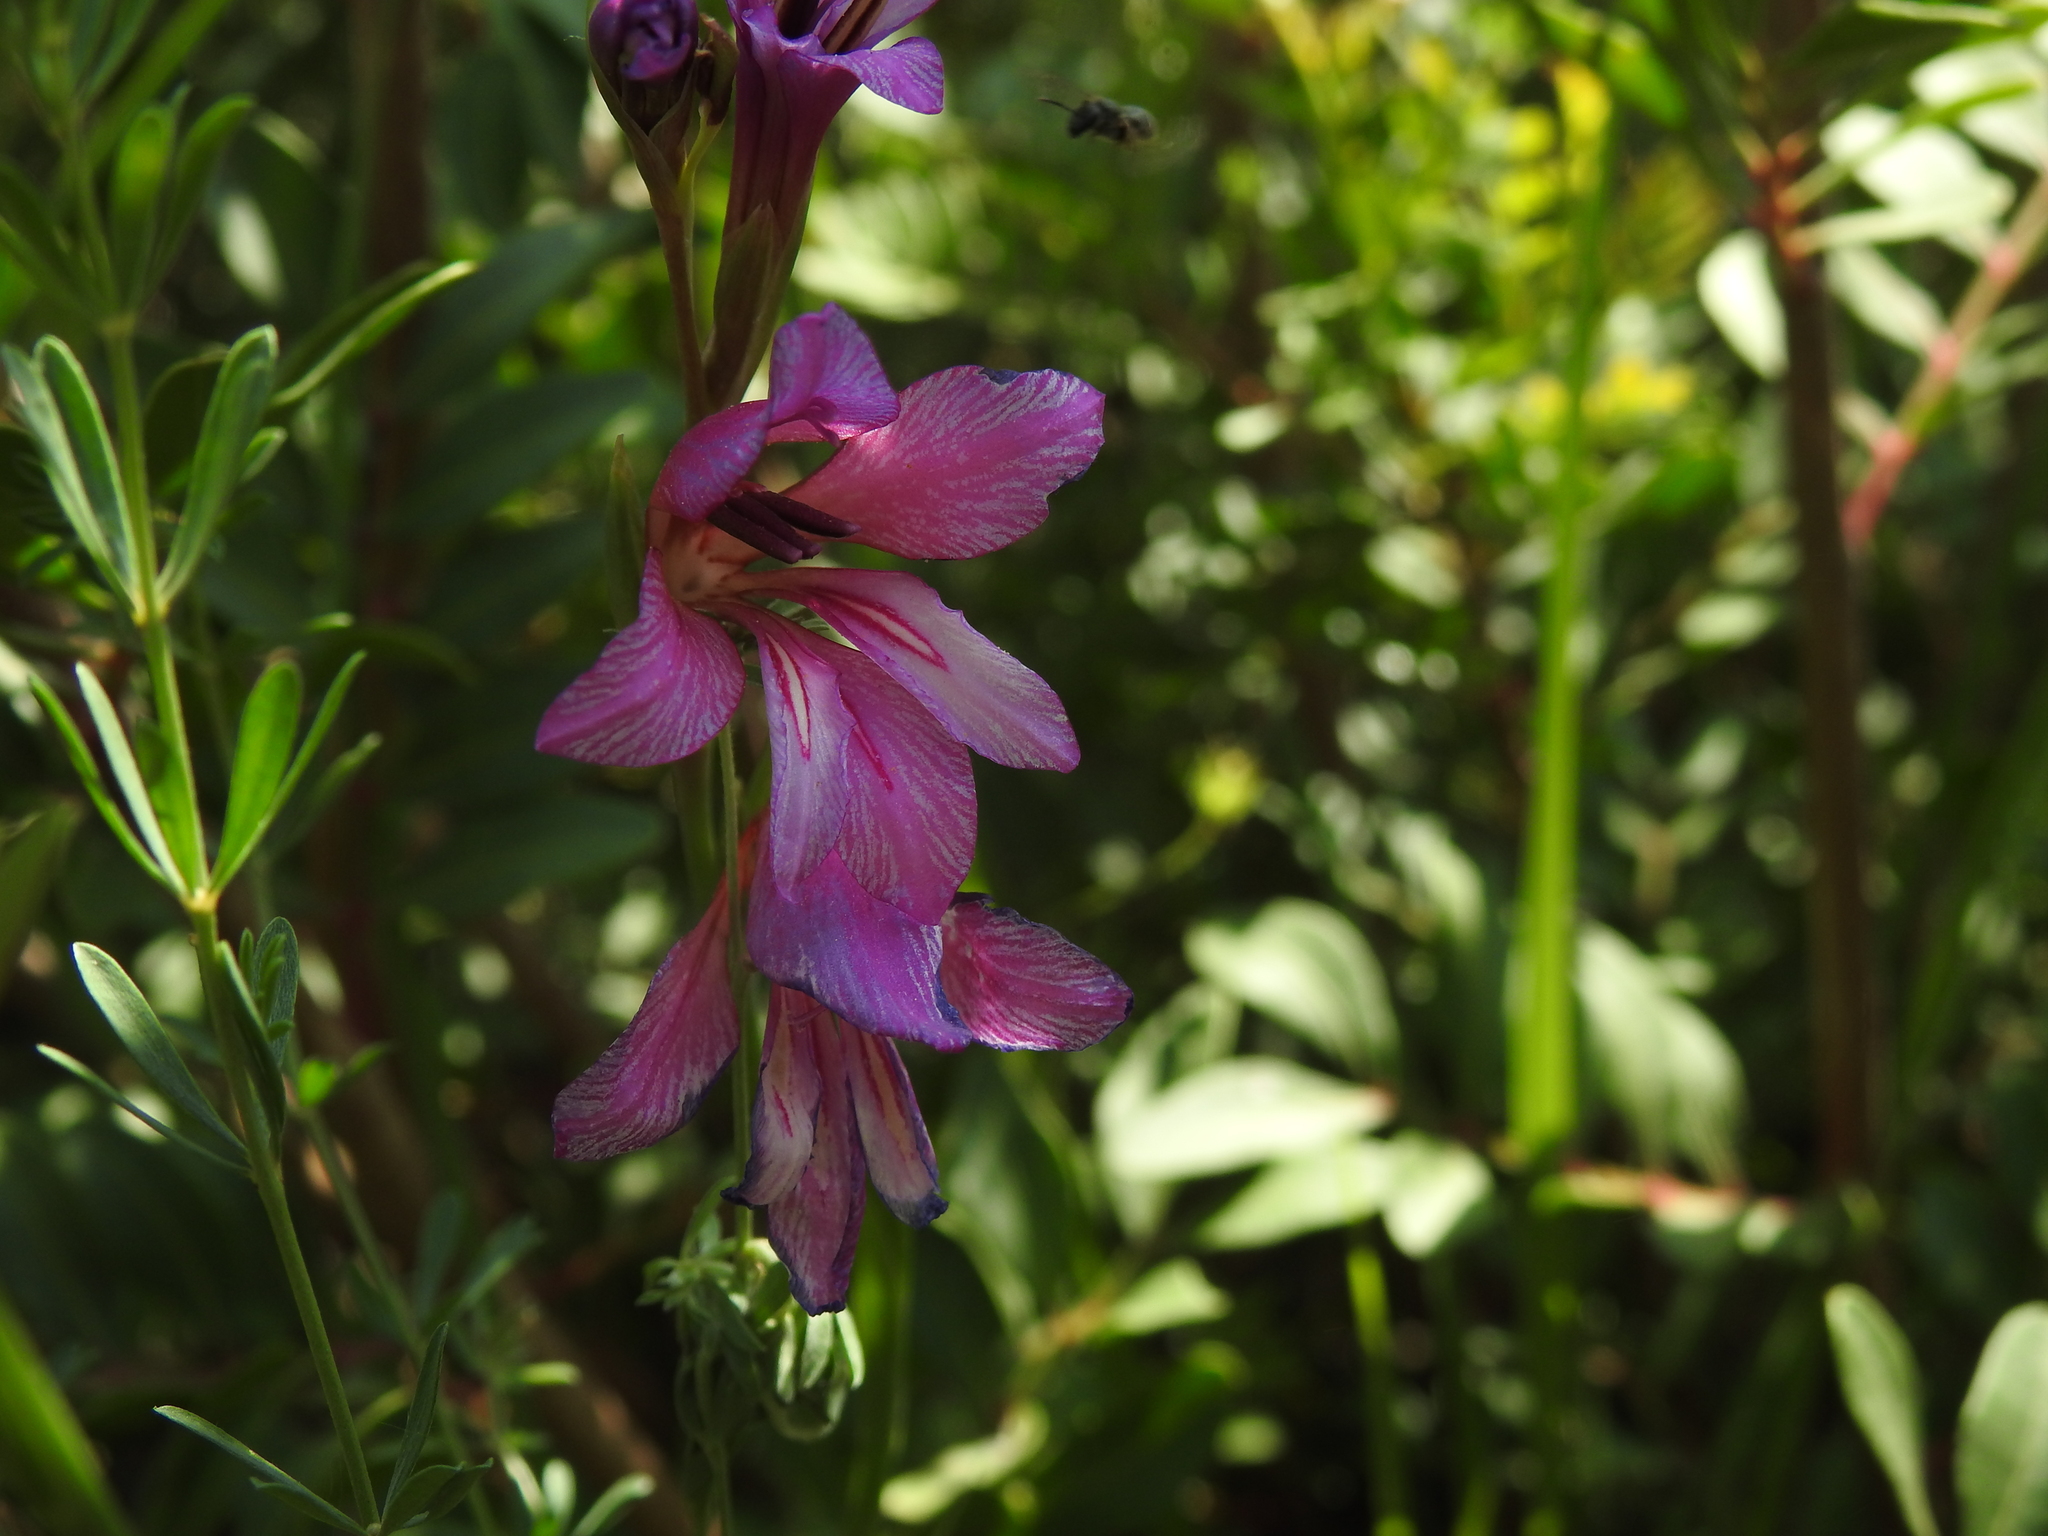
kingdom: Plantae
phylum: Tracheophyta
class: Liliopsida
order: Asparagales
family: Iridaceae
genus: Gladiolus
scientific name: Gladiolus dubius
